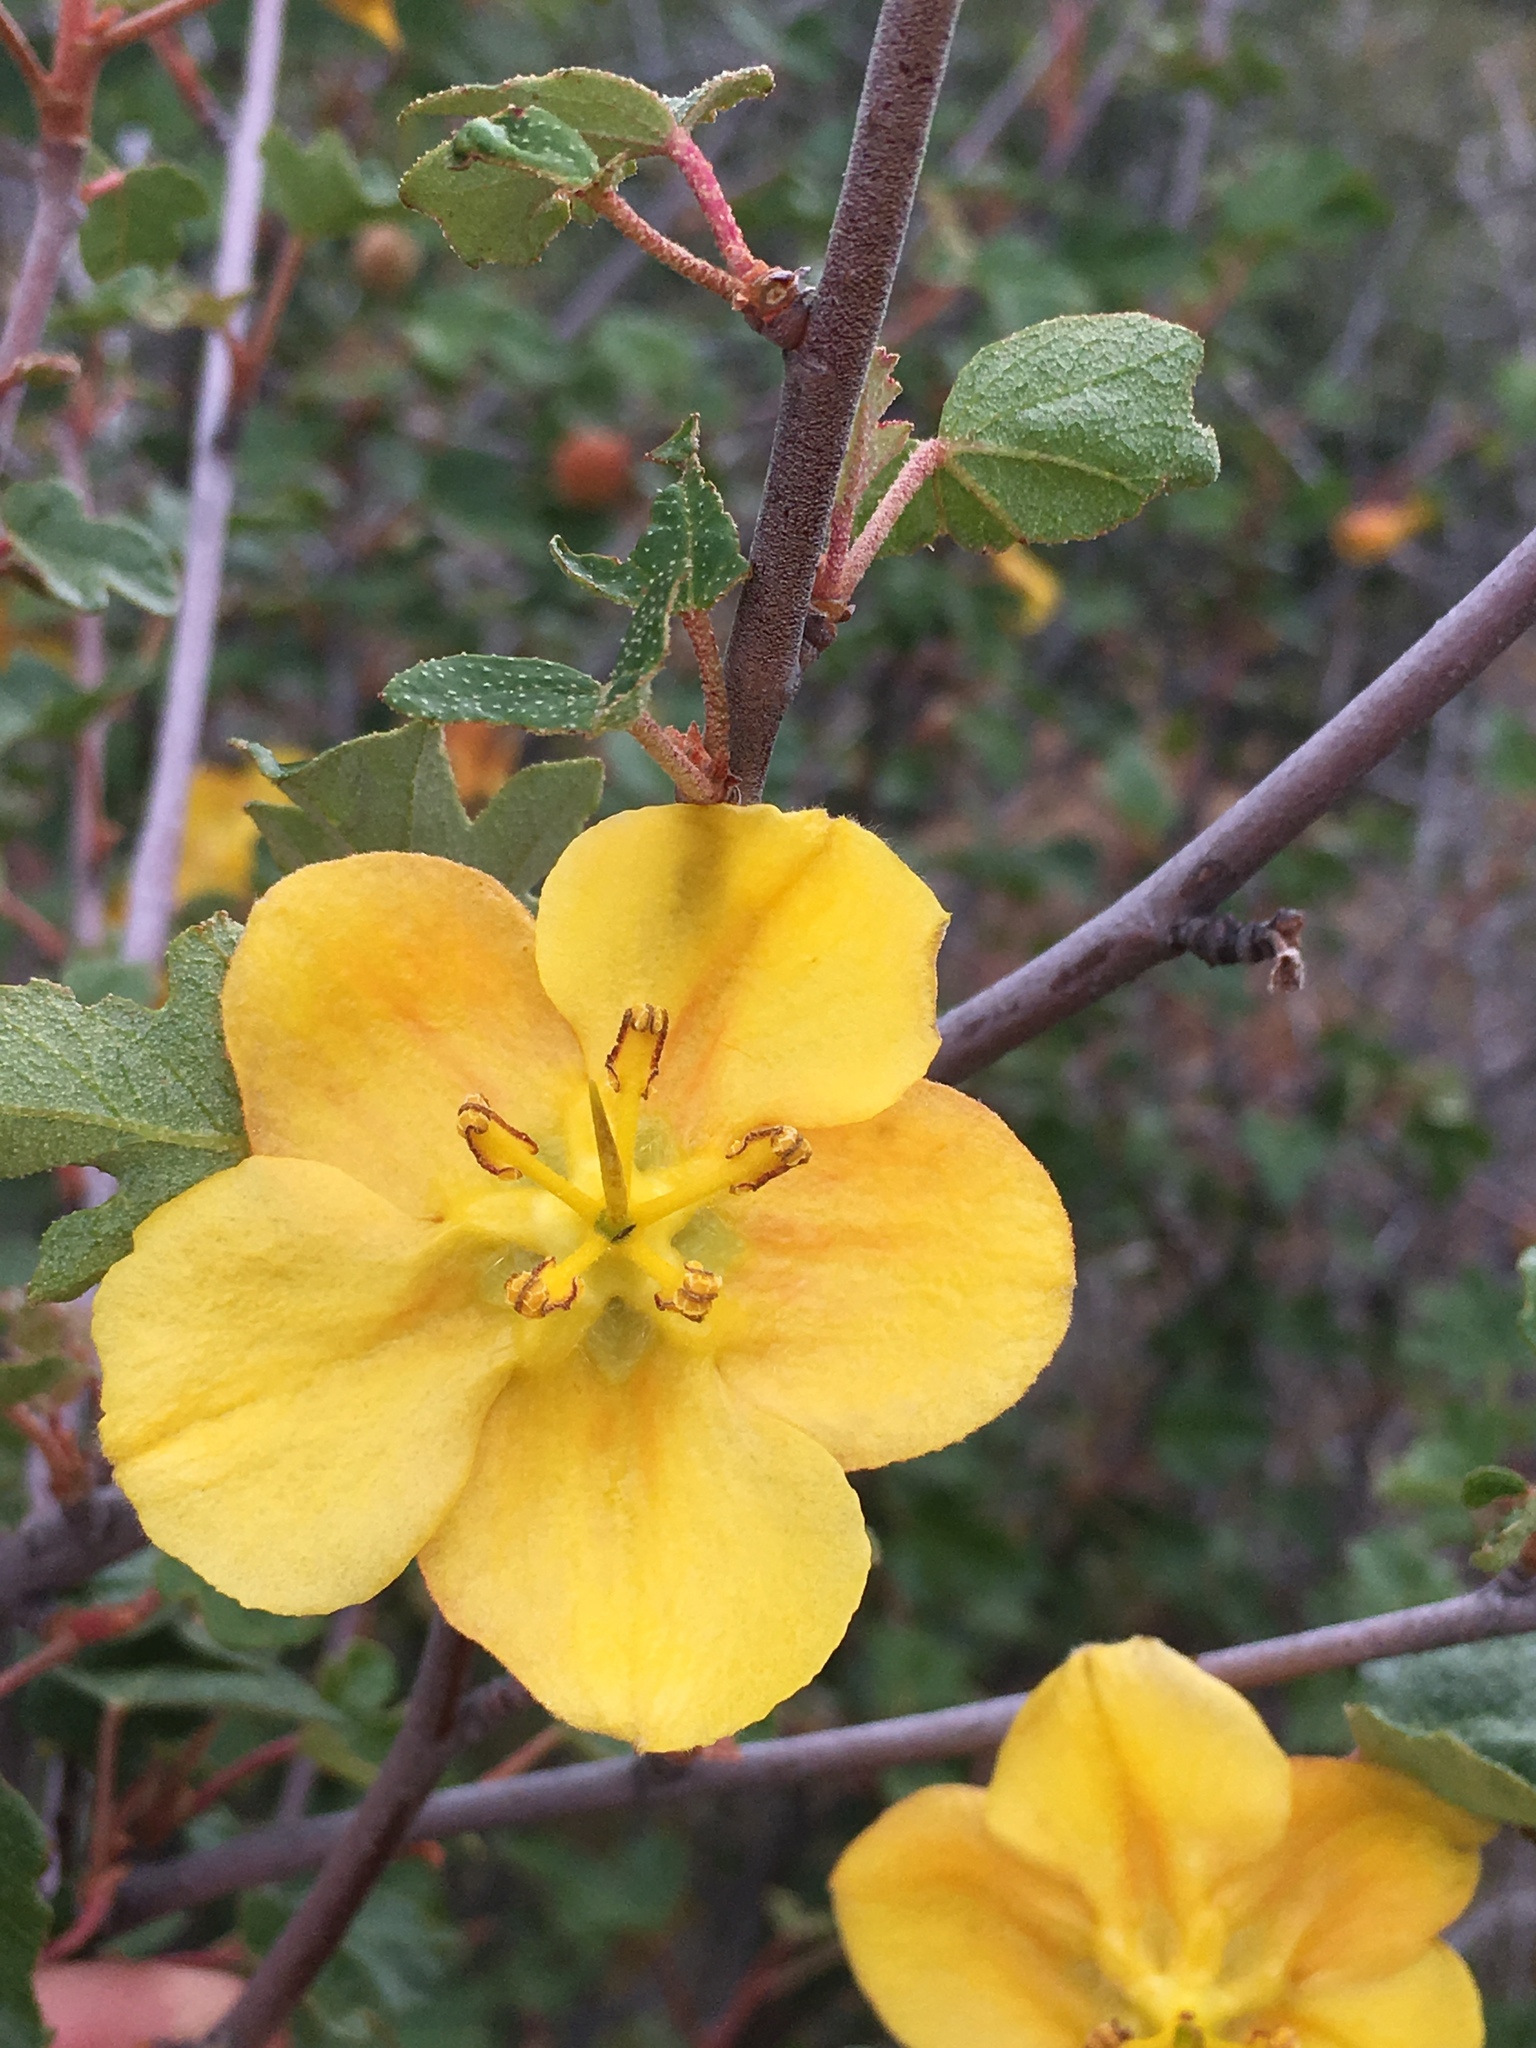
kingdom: Plantae
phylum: Tracheophyta
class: Magnoliopsida
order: Malvales
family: Malvaceae
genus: Fremontodendron
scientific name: Fremontodendron californicum
